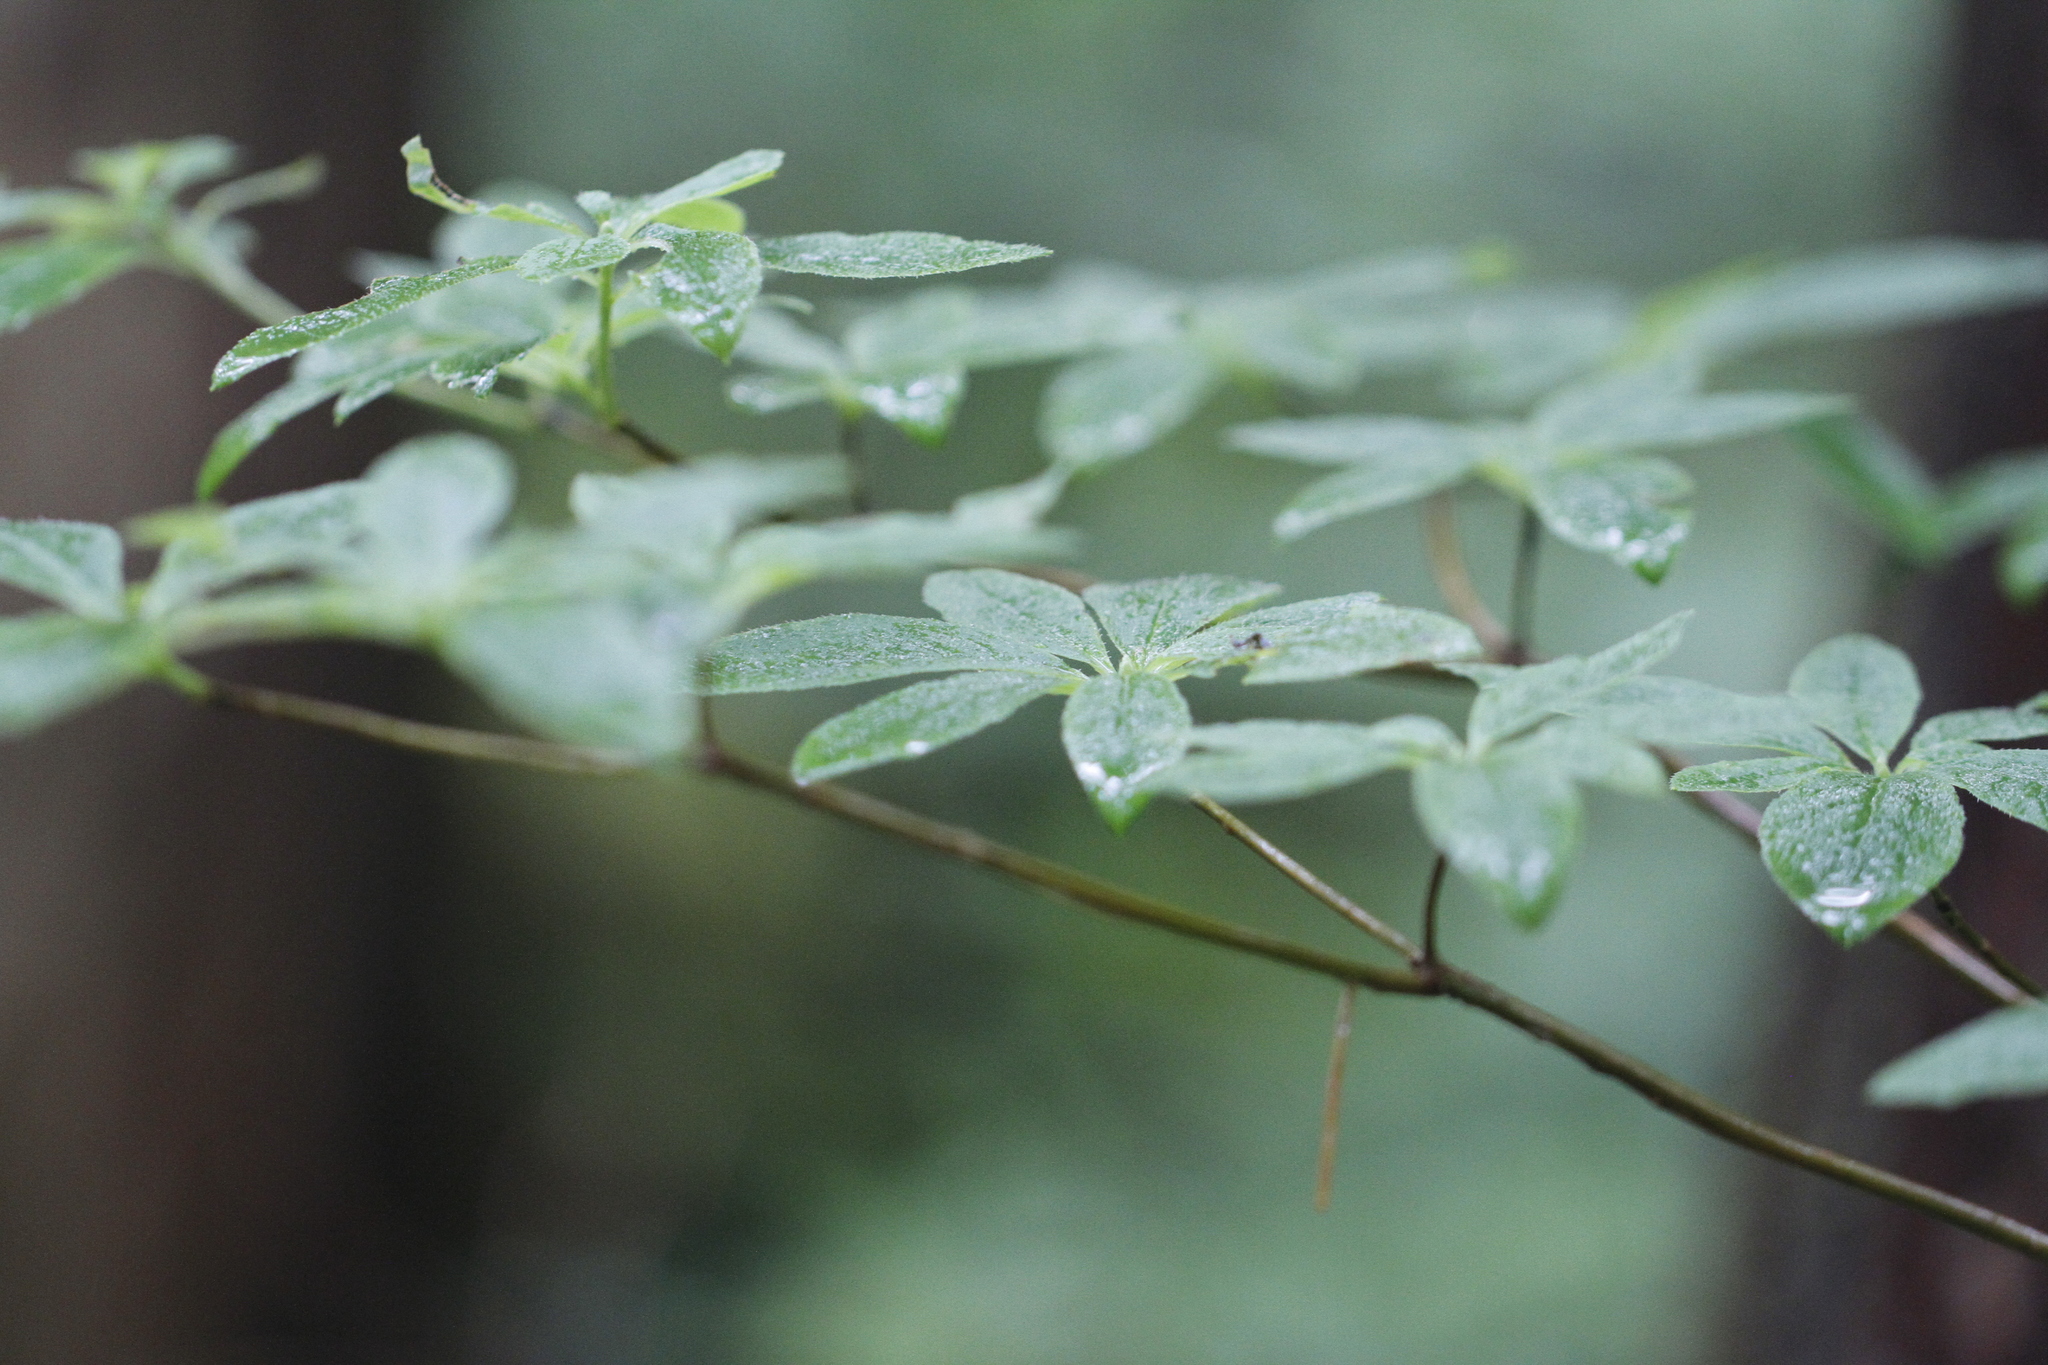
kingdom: Plantae
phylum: Tracheophyta
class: Magnoliopsida
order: Ericales
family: Ericaceae
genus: Rhododendron
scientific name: Rhododendron menziesii
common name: Pacific menziesia
